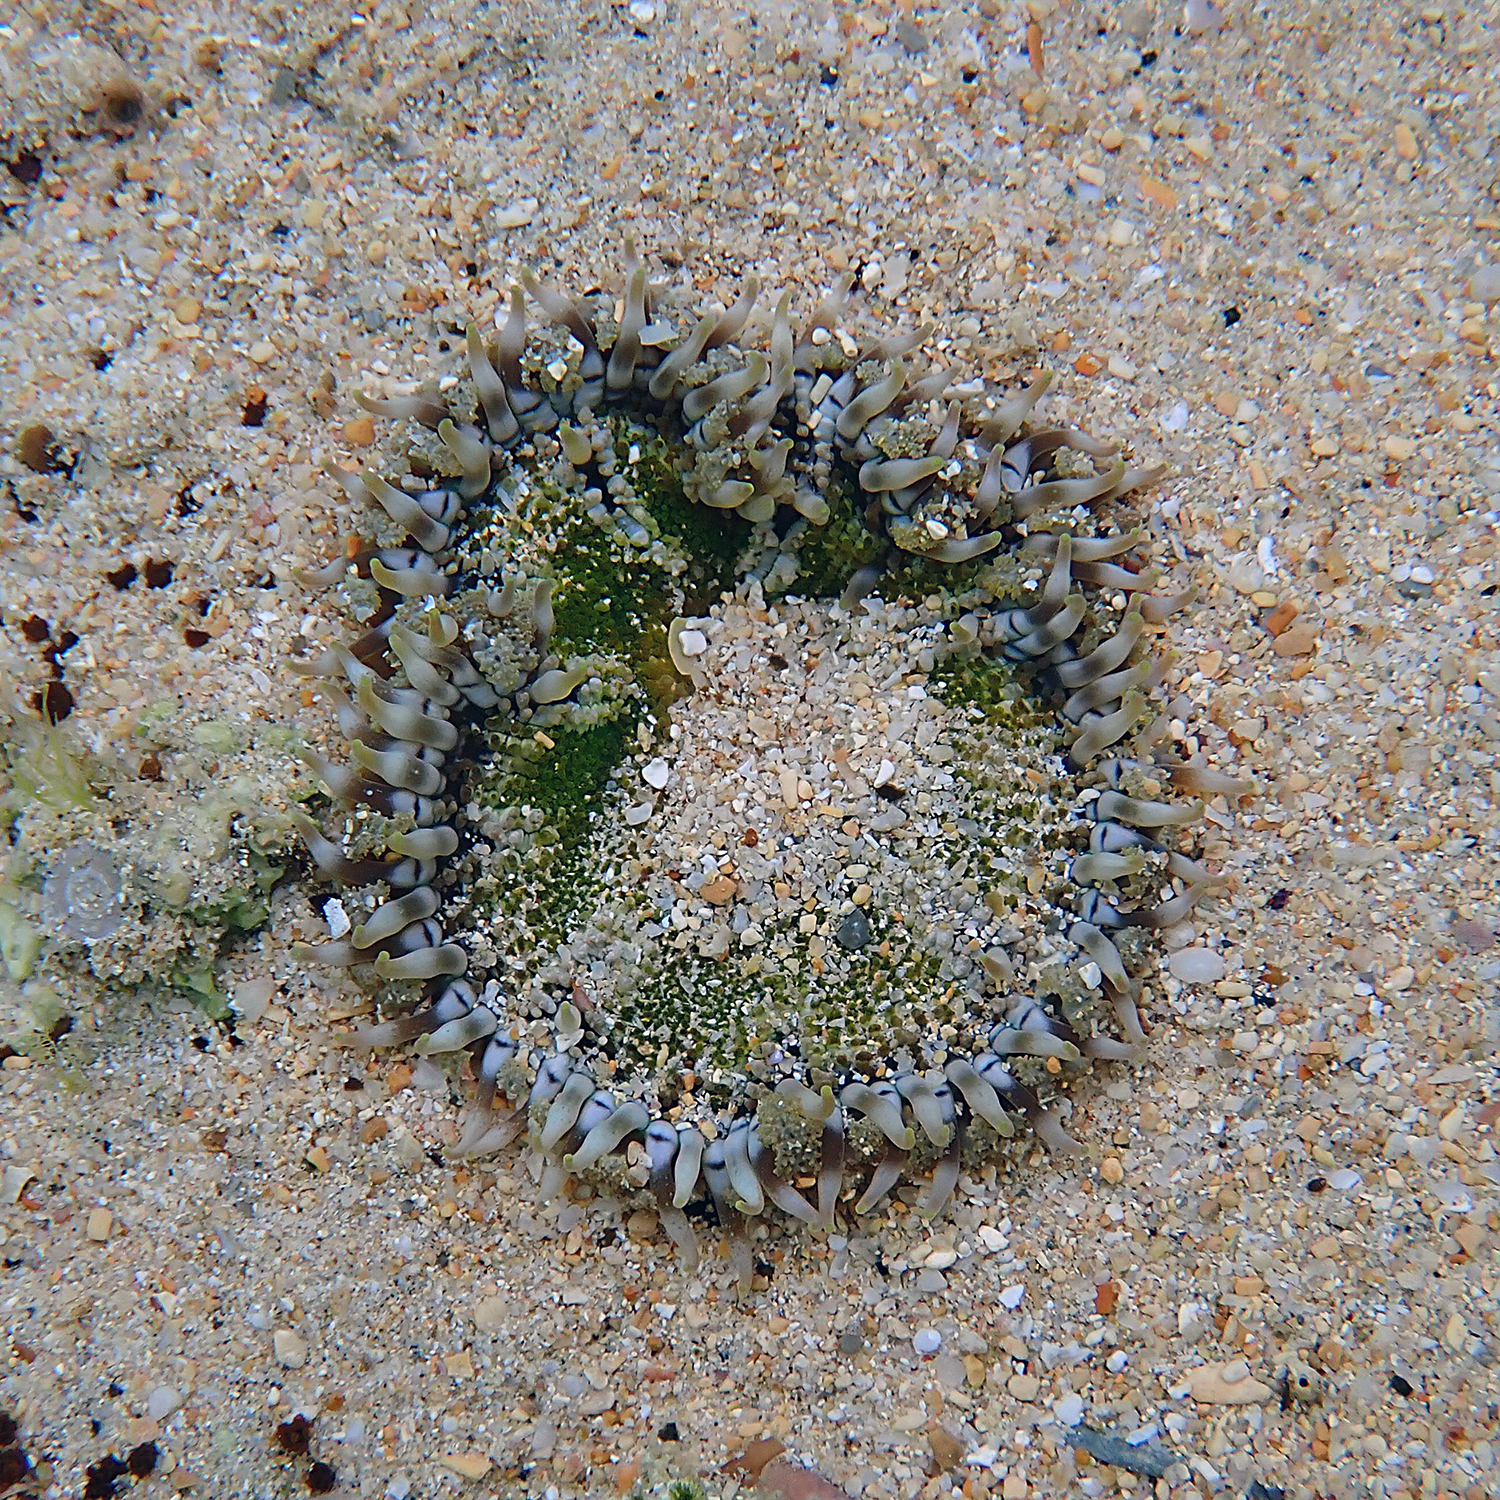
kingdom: Animalia
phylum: Cnidaria
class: Anthozoa
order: Actiniaria
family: Heteranthidae
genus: Heteranthus
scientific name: Heteranthus verruculatus
